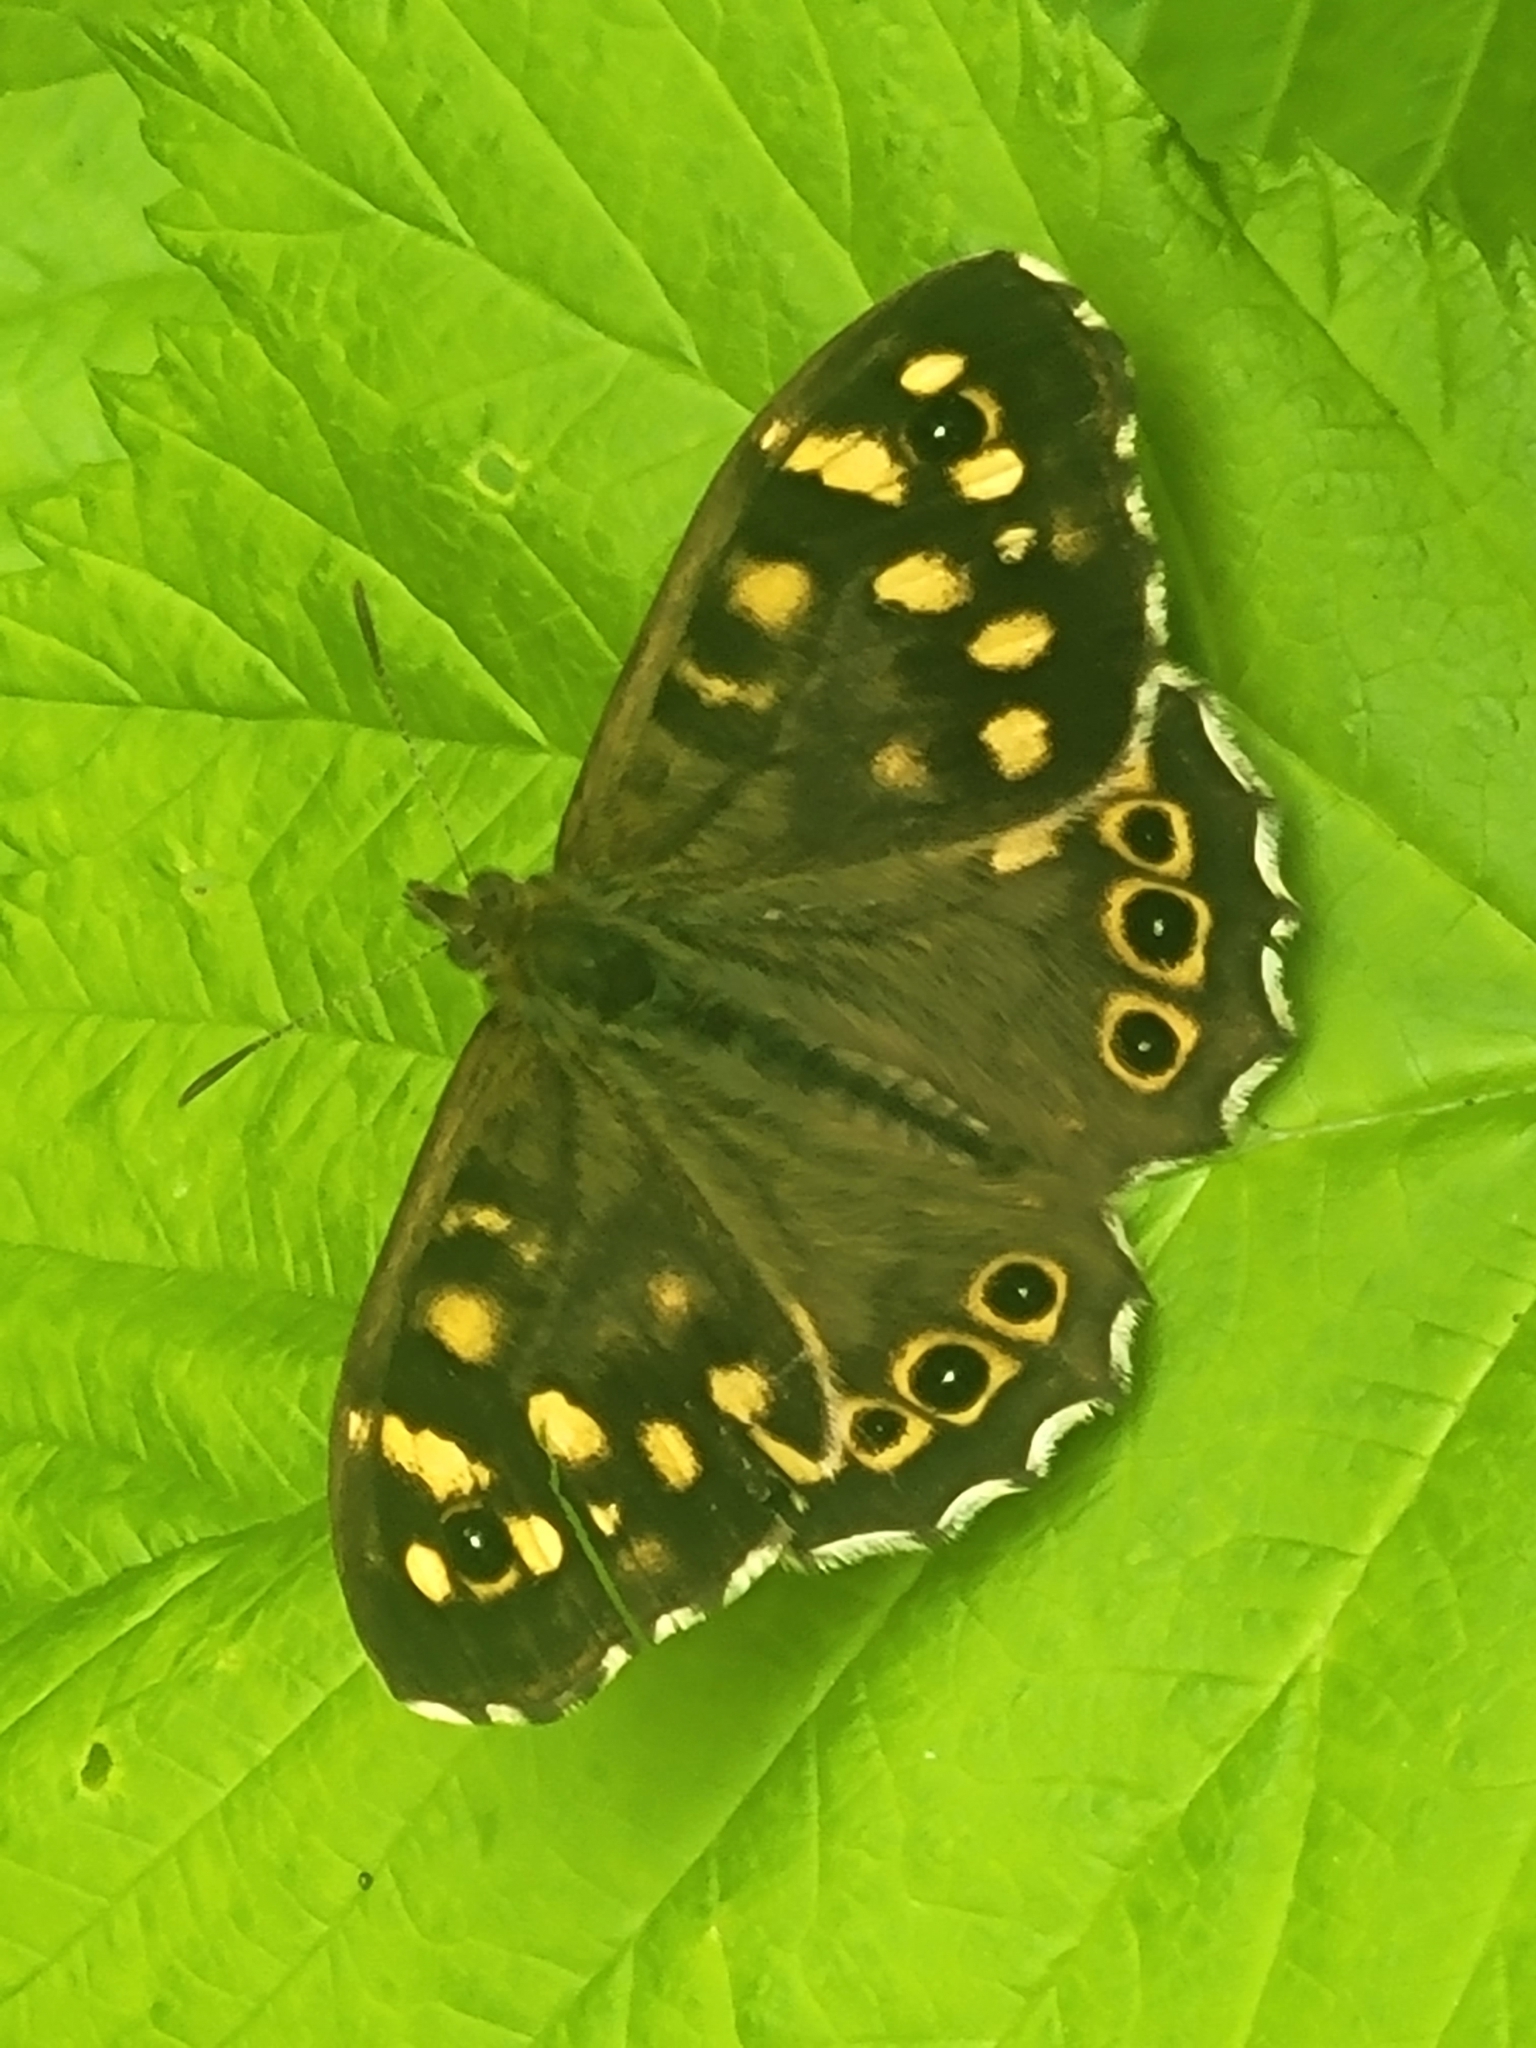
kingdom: Animalia
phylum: Arthropoda
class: Insecta
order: Lepidoptera
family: Nymphalidae
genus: Pararge
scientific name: Pararge aegeria
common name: Speckled wood
